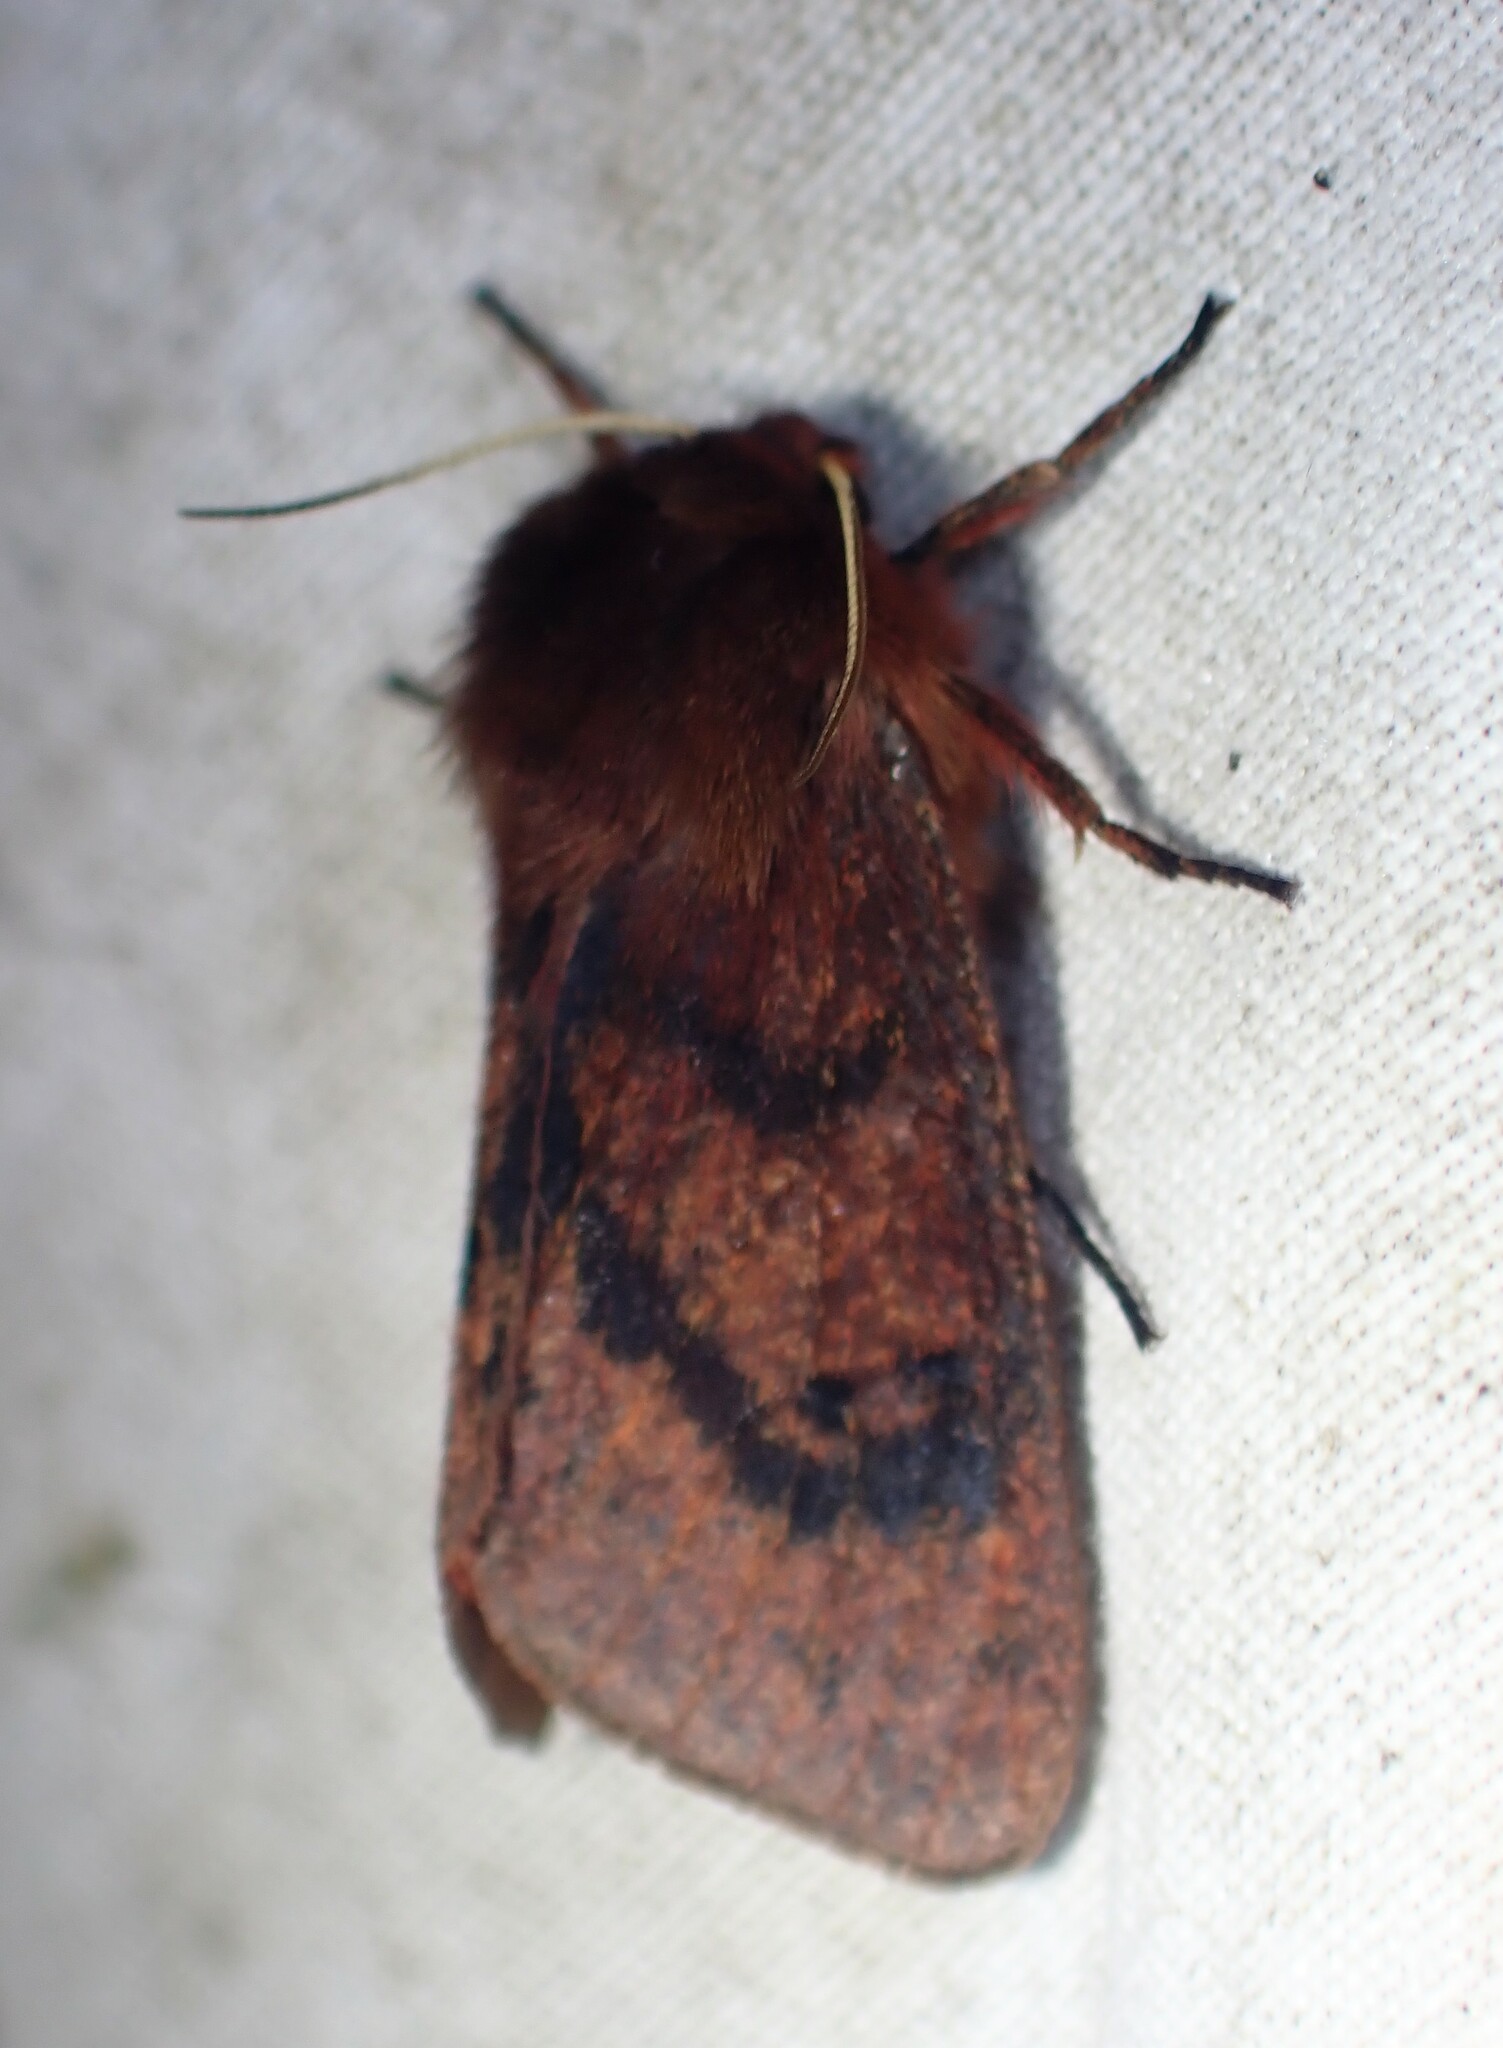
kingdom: Animalia
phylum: Arthropoda
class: Insecta
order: Lepidoptera
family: Erebidae
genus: Phragmatobia
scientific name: Phragmatobia assimilans
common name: Large ruby tiger moth
